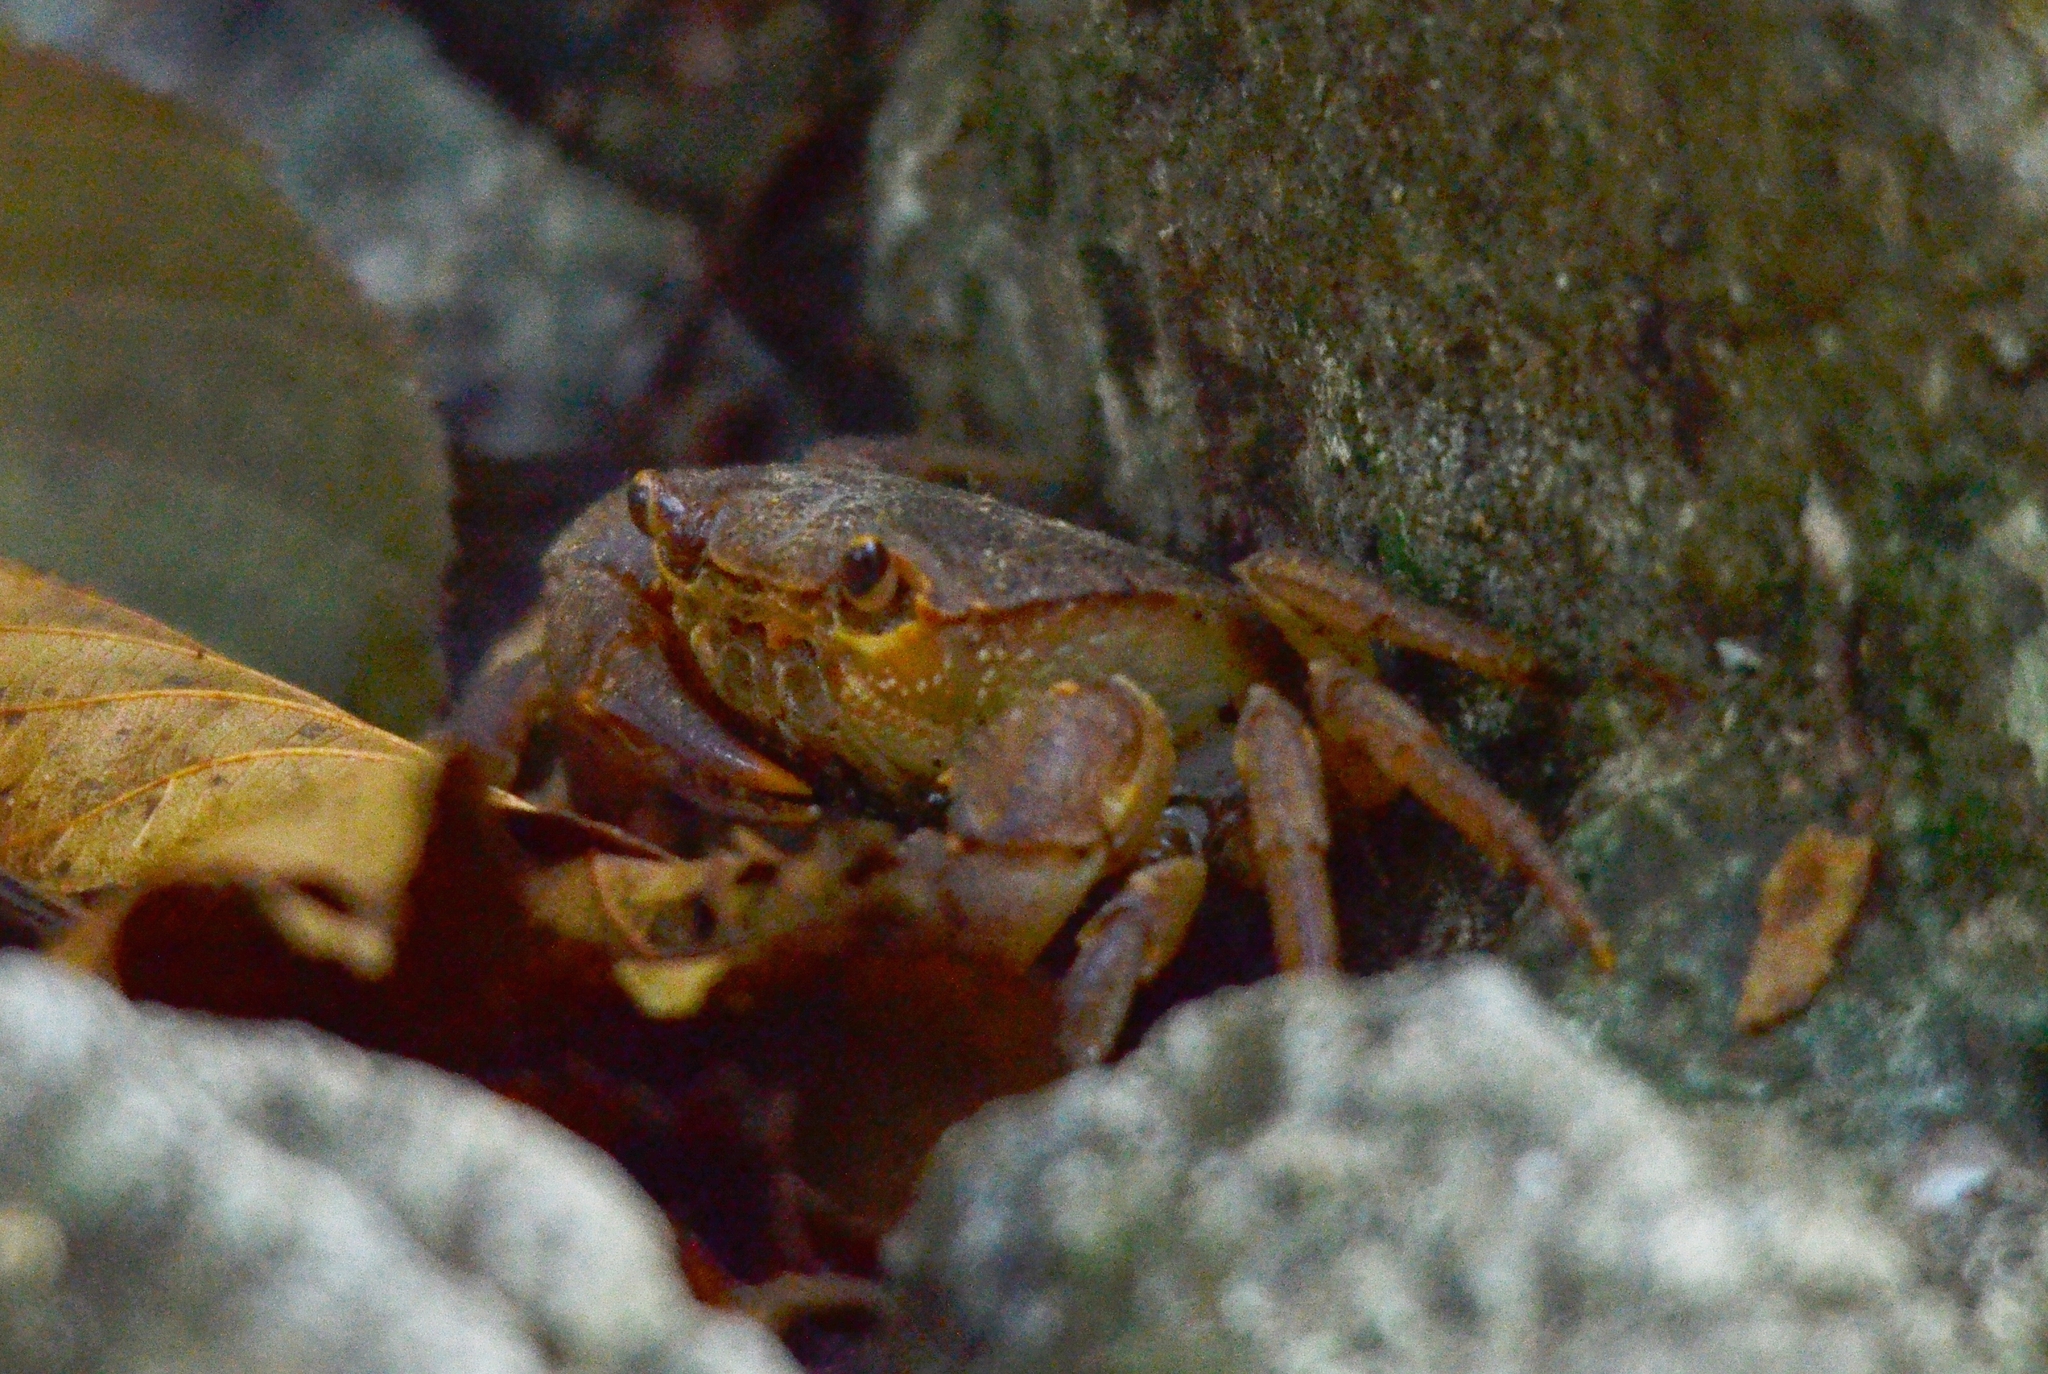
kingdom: Animalia
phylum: Arthropoda
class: Malacostraca
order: Decapoda
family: Potamidae
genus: Potamon
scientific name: Potamon algeriense
